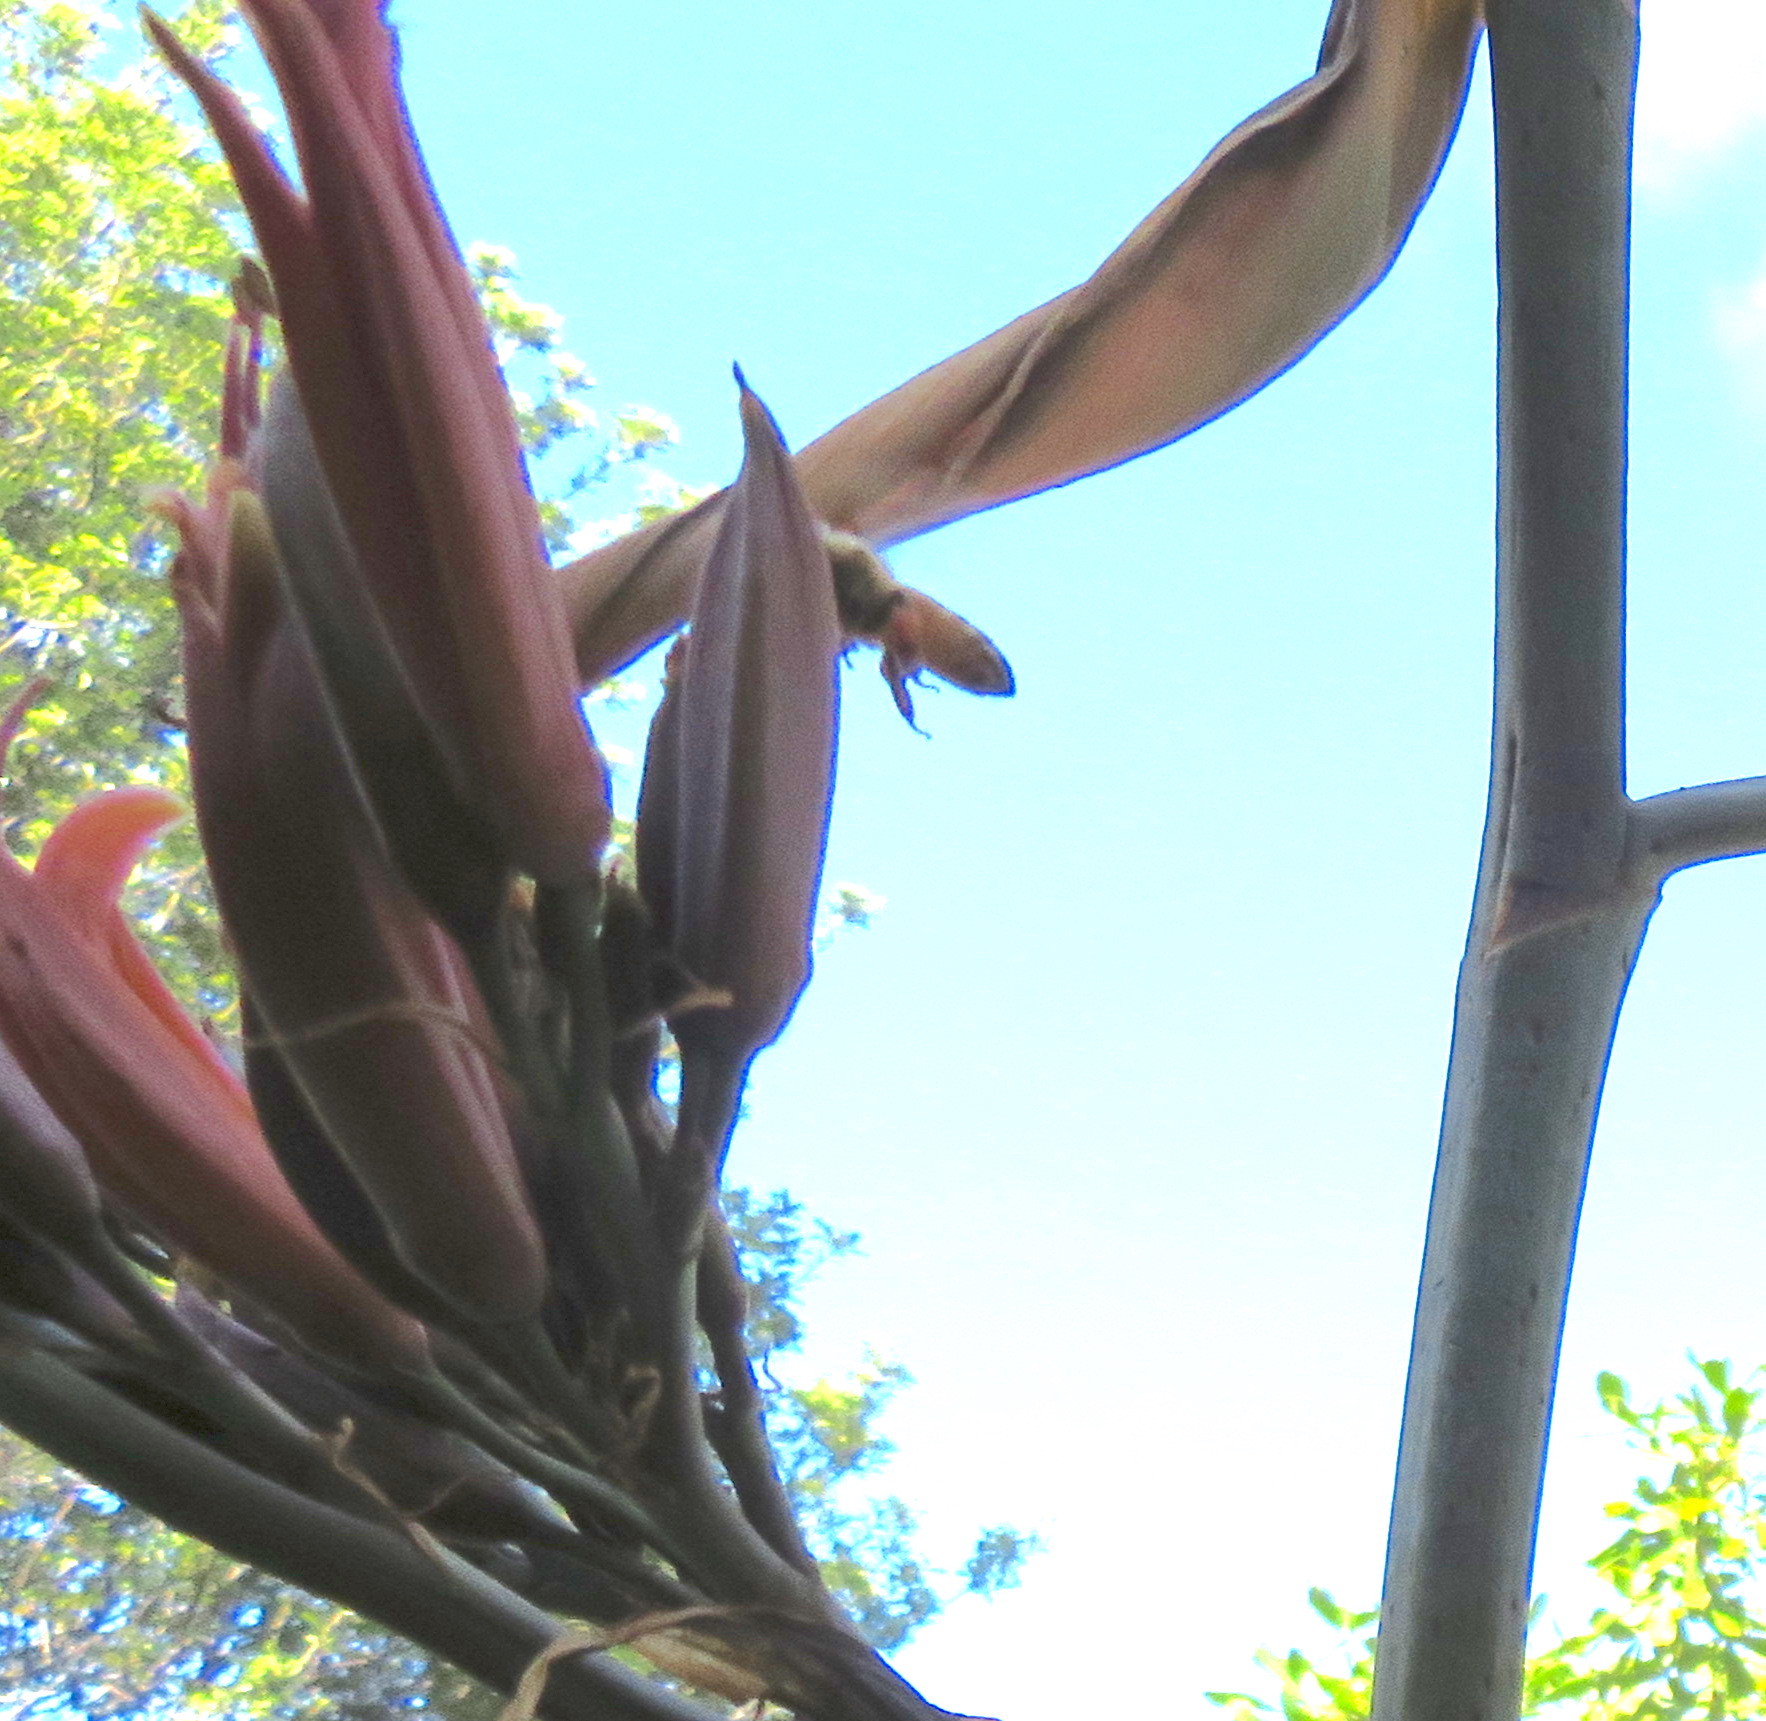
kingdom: Plantae
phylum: Tracheophyta
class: Liliopsida
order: Asparagales
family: Asphodelaceae
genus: Phormium
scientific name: Phormium tenax
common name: New zealand flax
